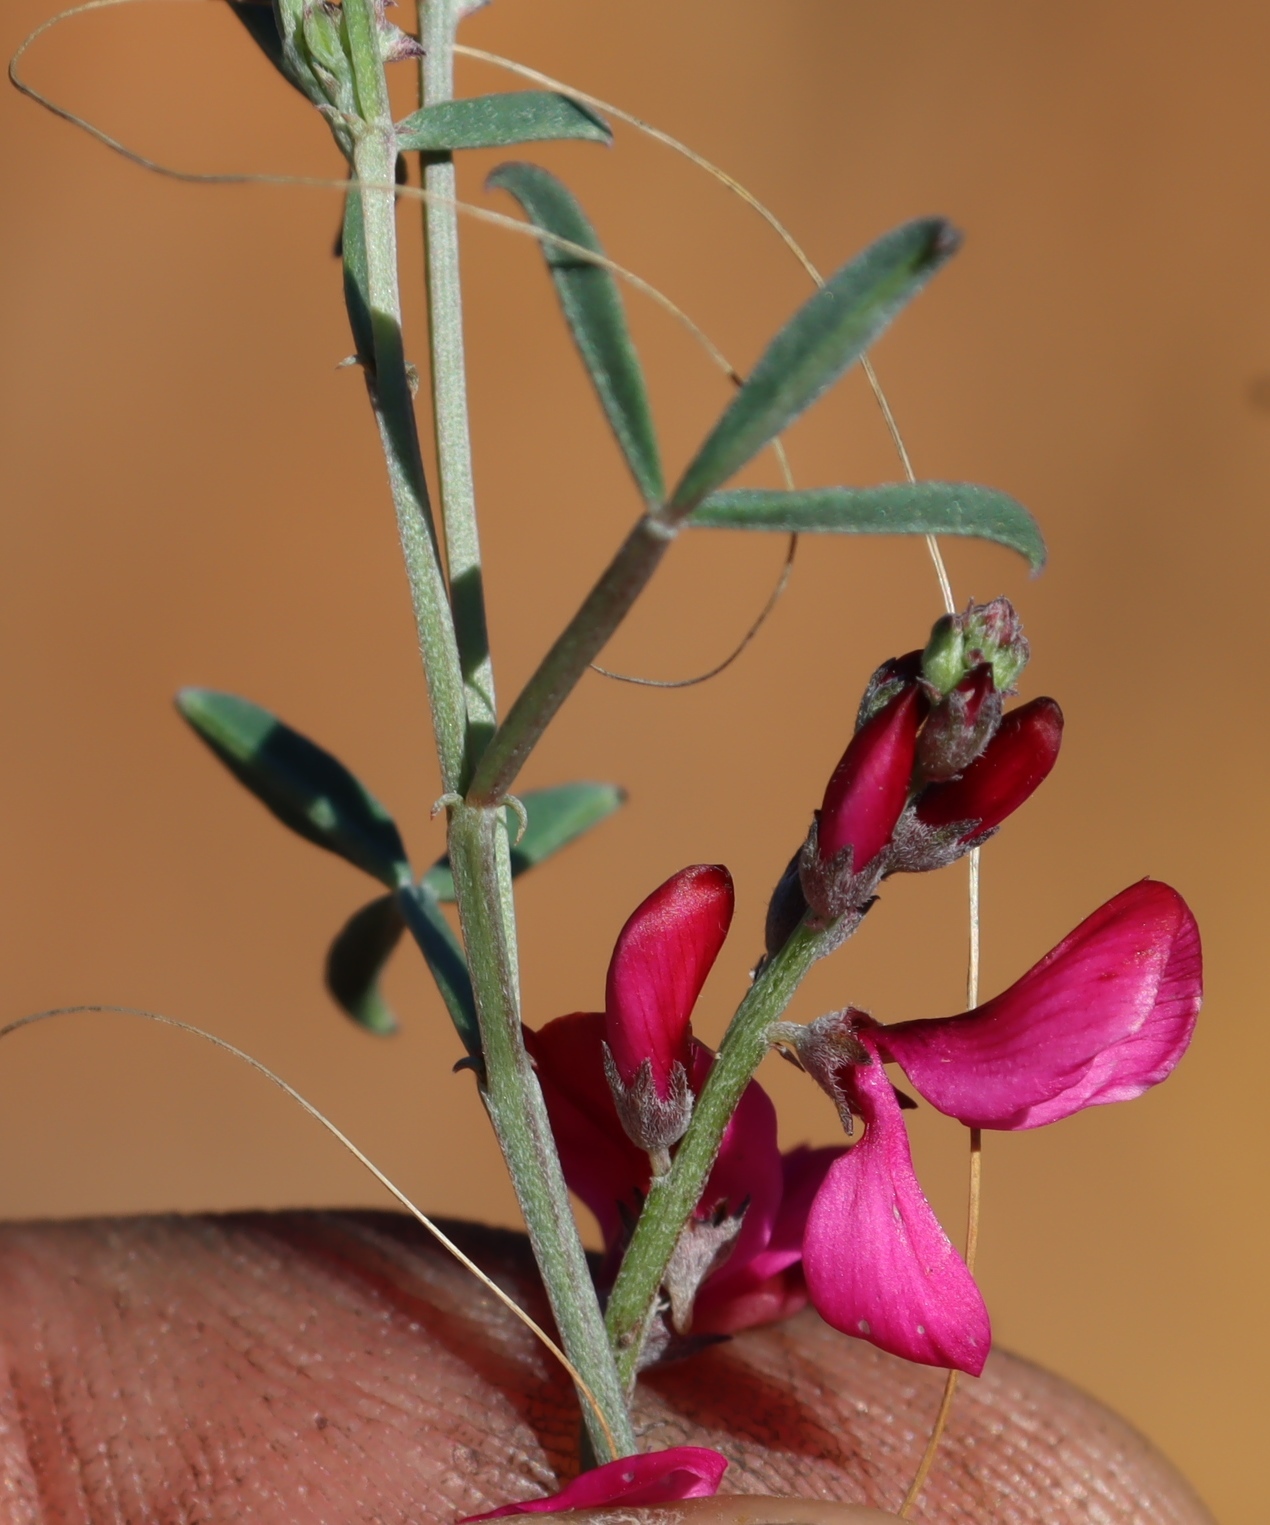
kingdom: Plantae
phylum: Tracheophyta
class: Magnoliopsida
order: Fabales
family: Fabaceae
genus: Indigofera
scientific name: Indigofera complicata
